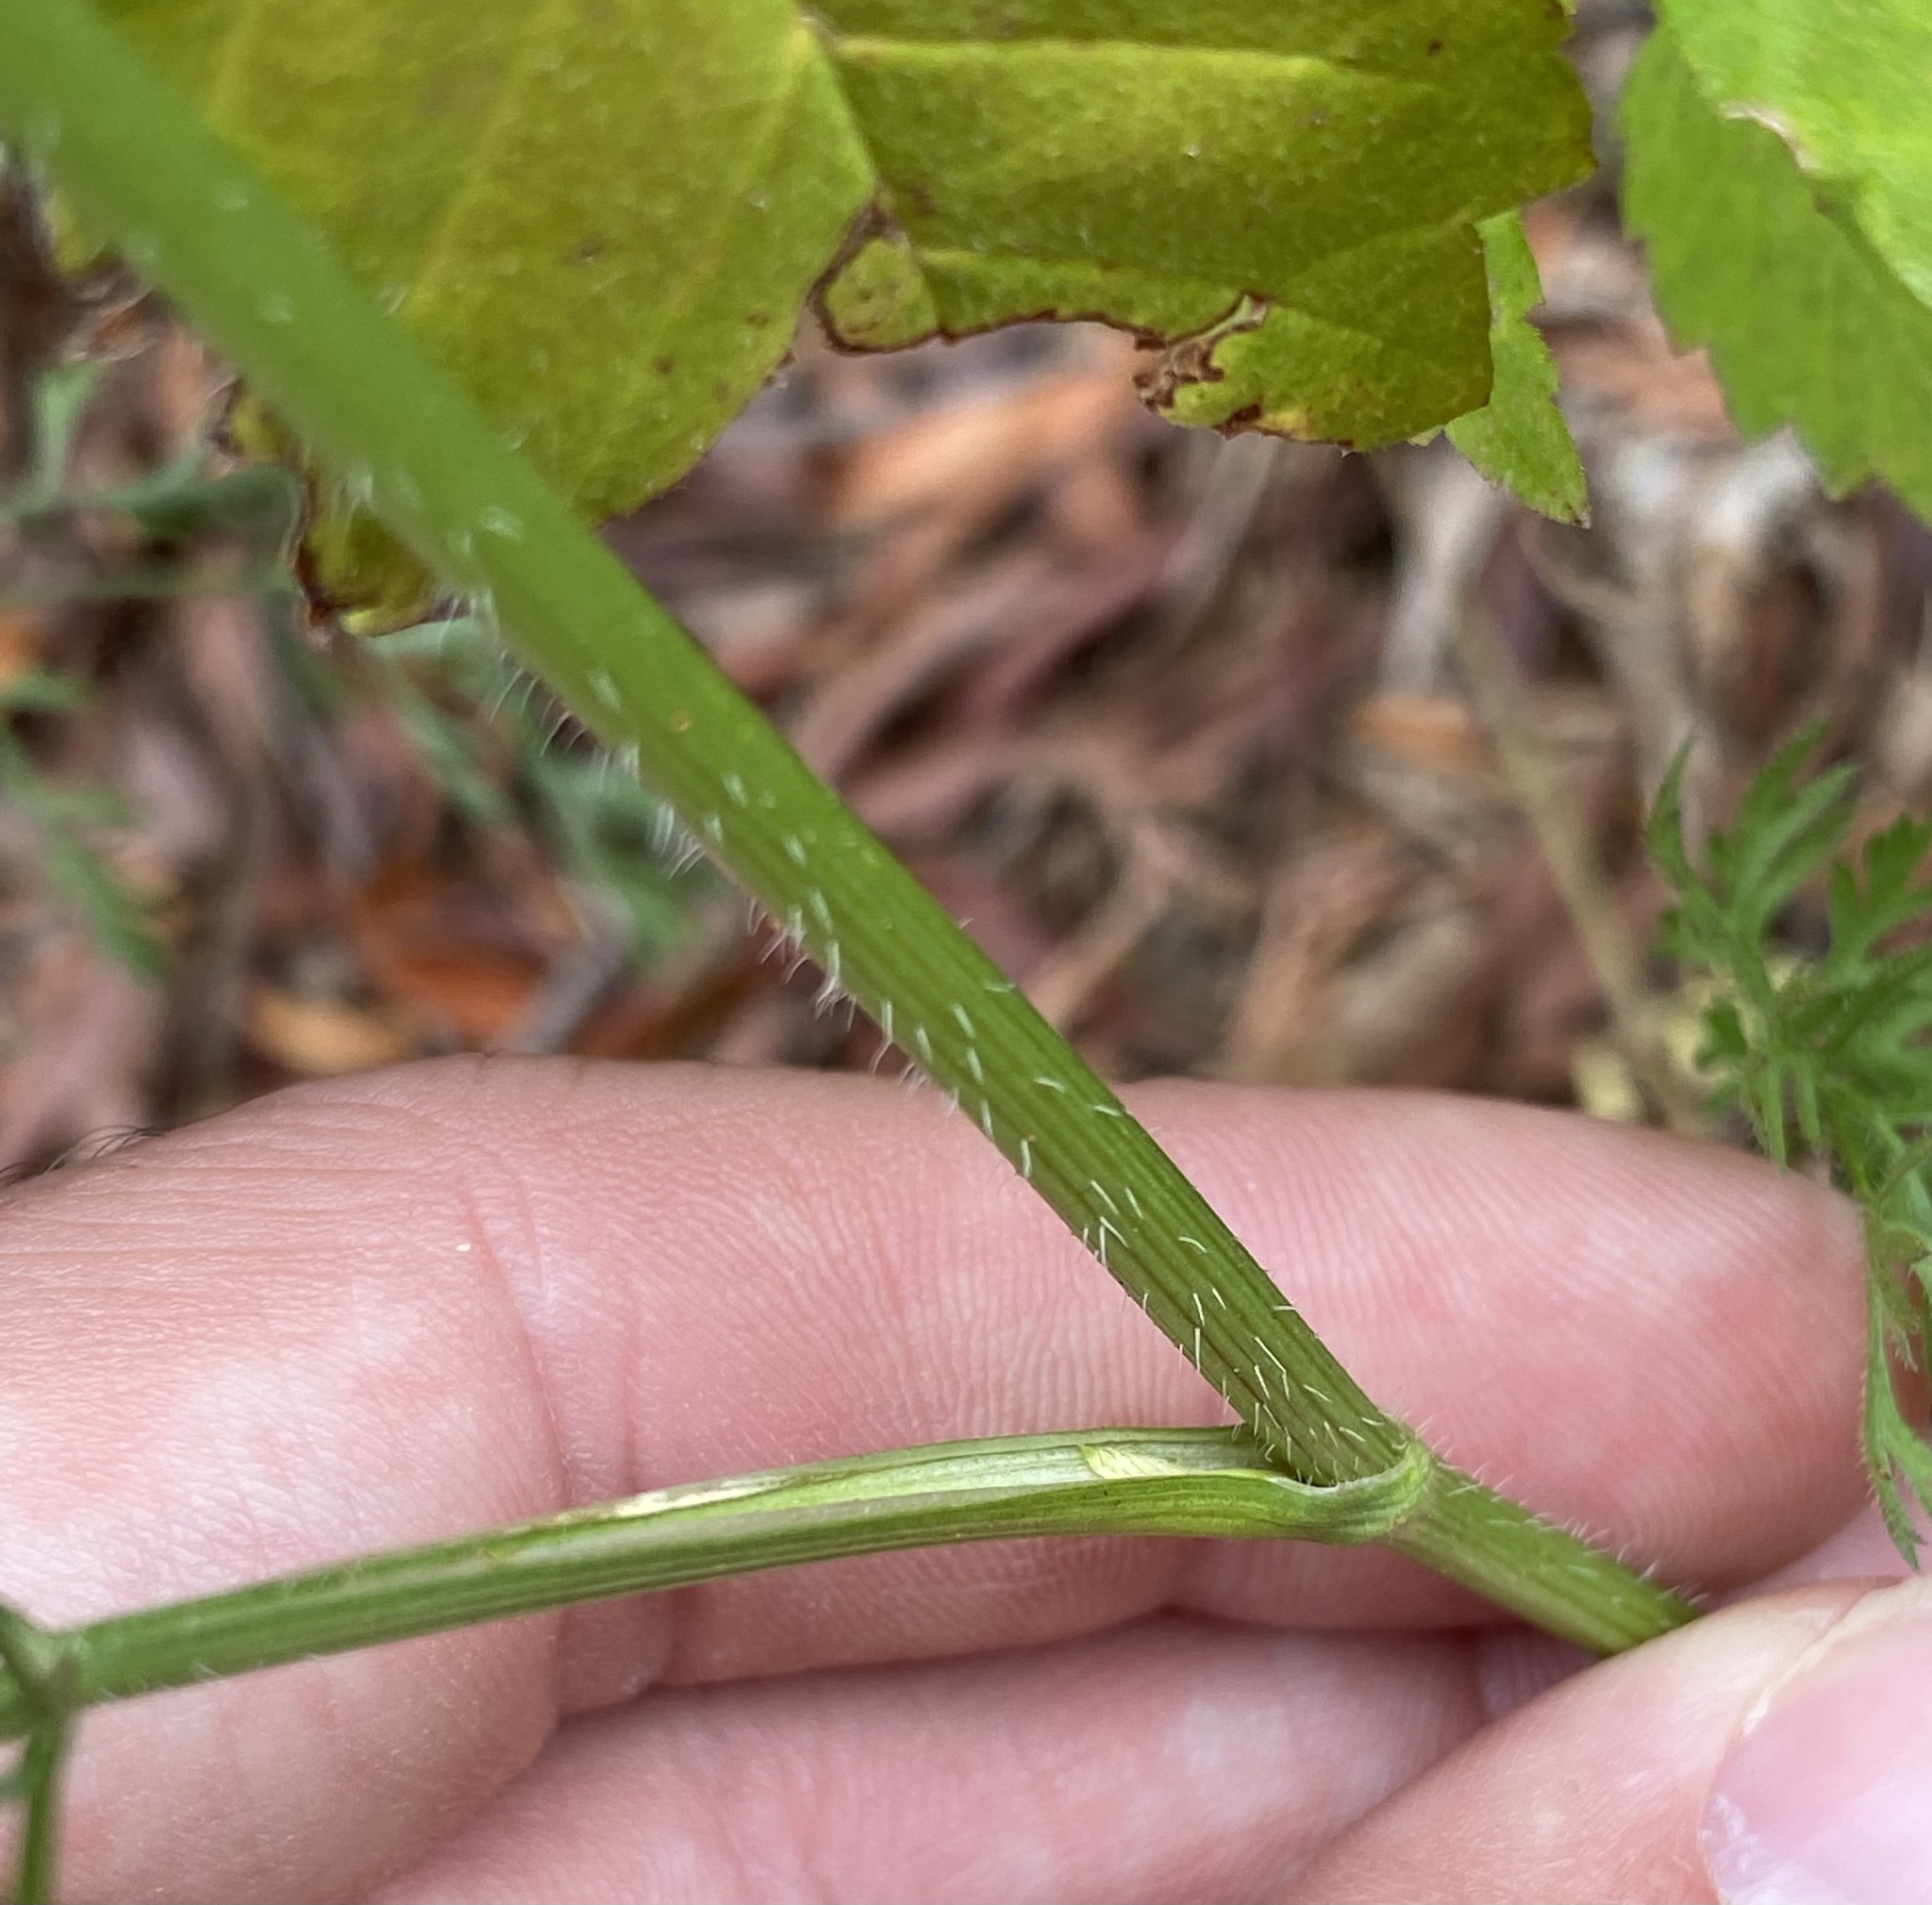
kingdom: Plantae
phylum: Tracheophyta
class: Magnoliopsida
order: Apiales
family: Apiaceae
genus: Daucus
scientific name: Daucus carota
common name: Wild carrot
